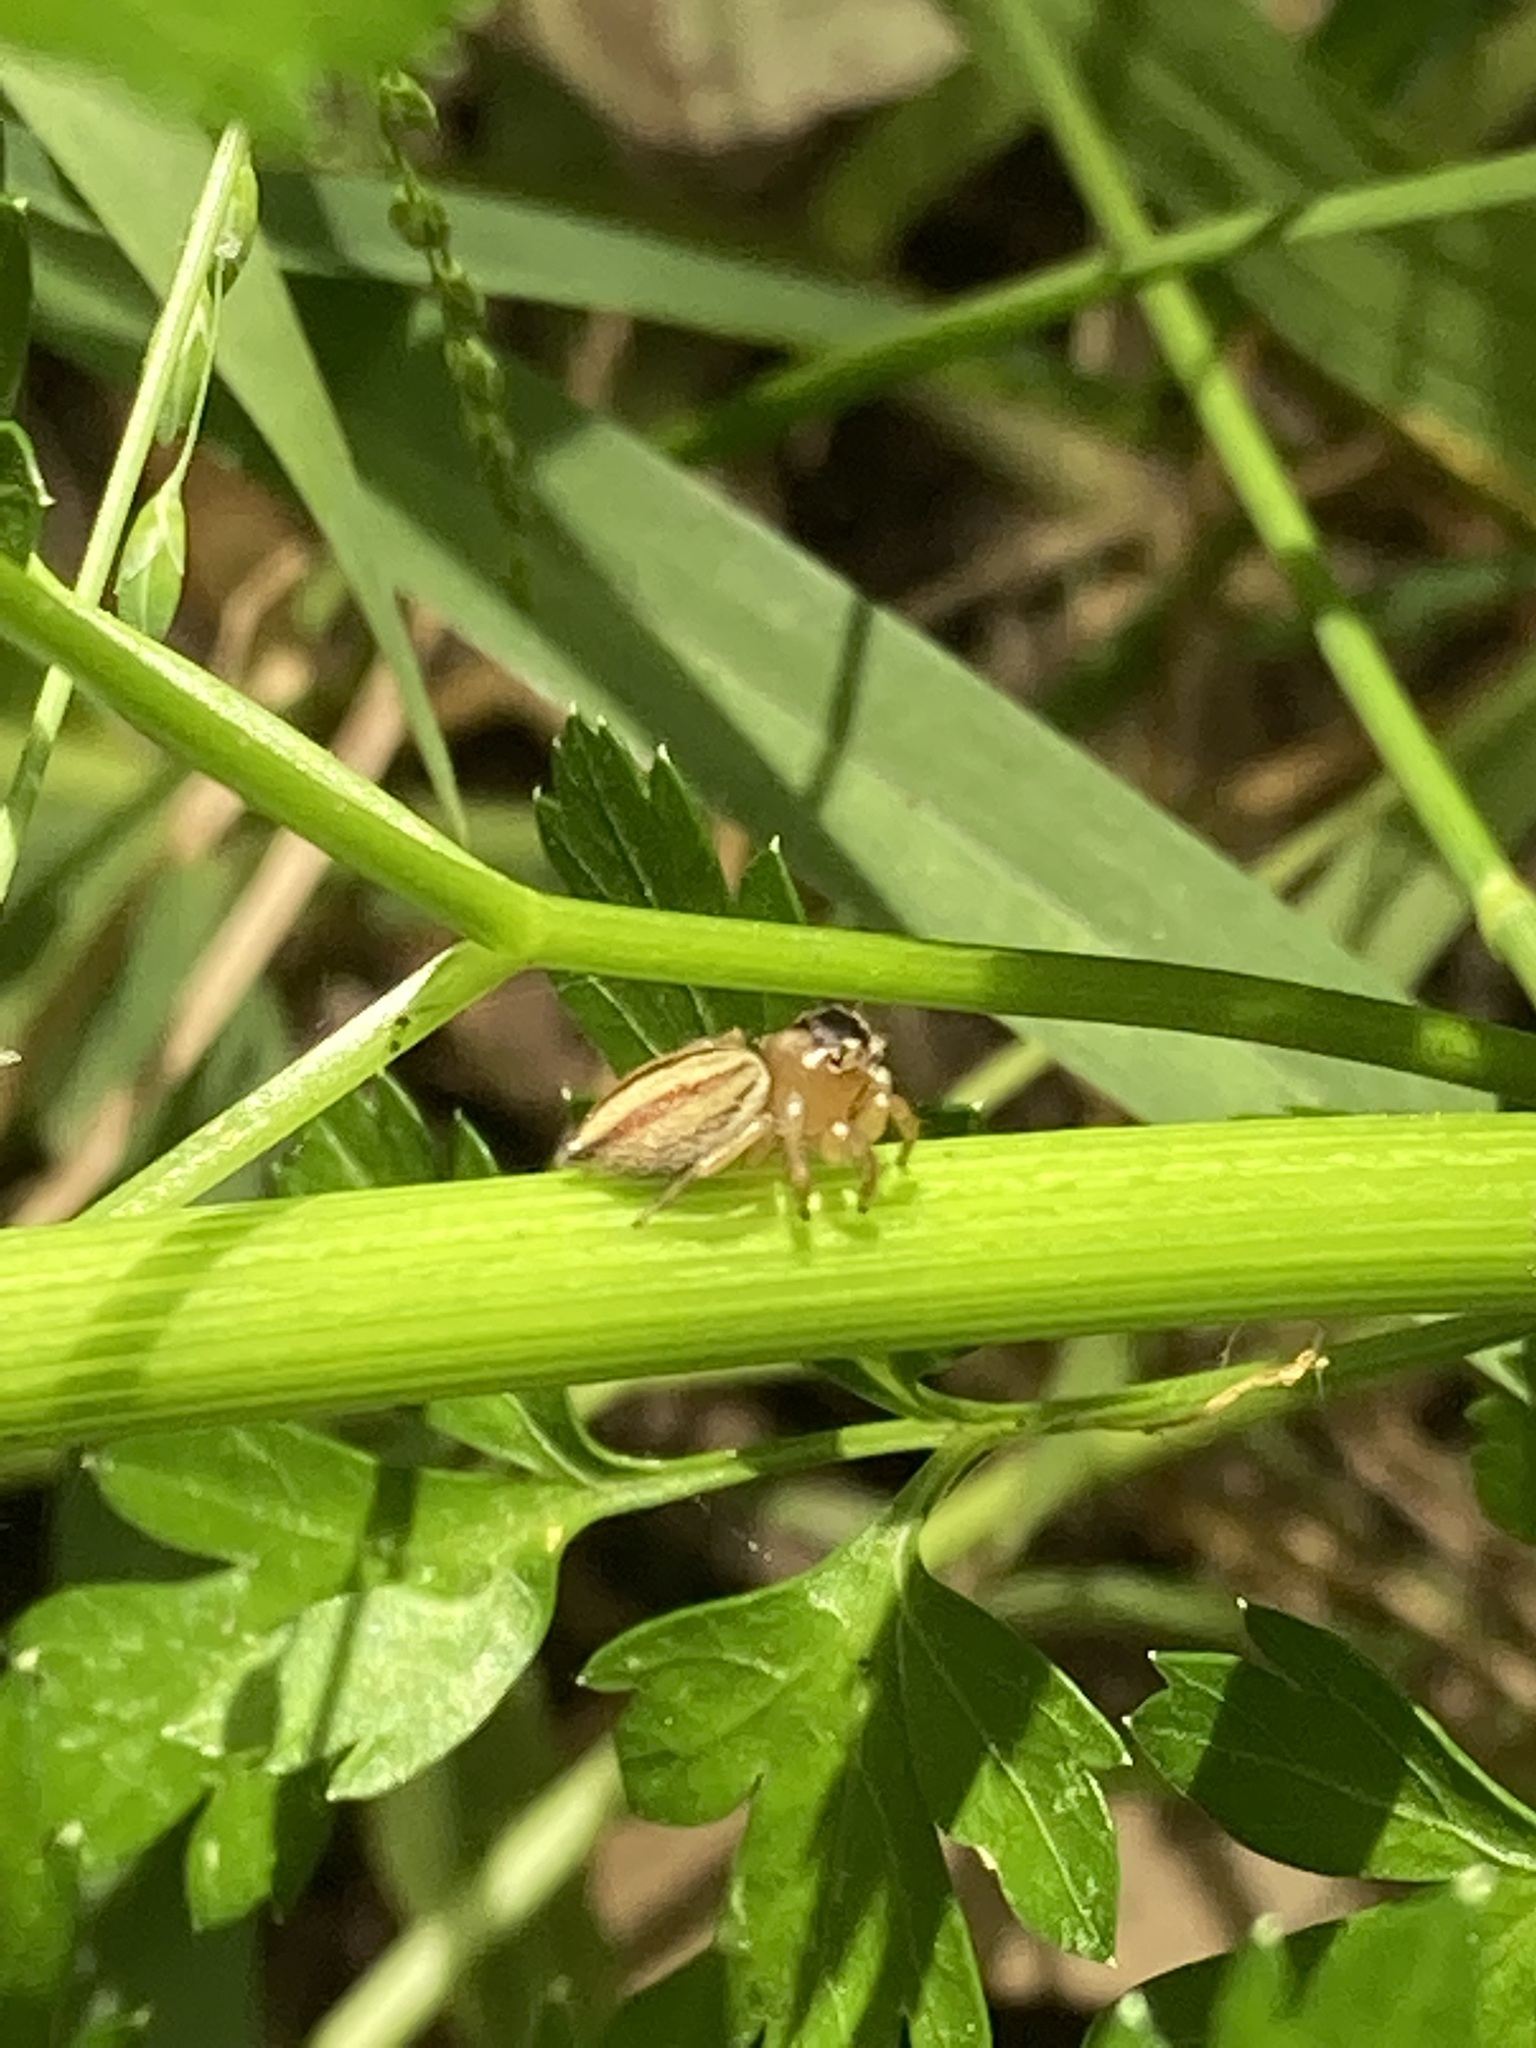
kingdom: Animalia
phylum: Arthropoda
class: Arachnida
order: Araneae
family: Salticidae
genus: Maratus
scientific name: Maratus scutulatus
